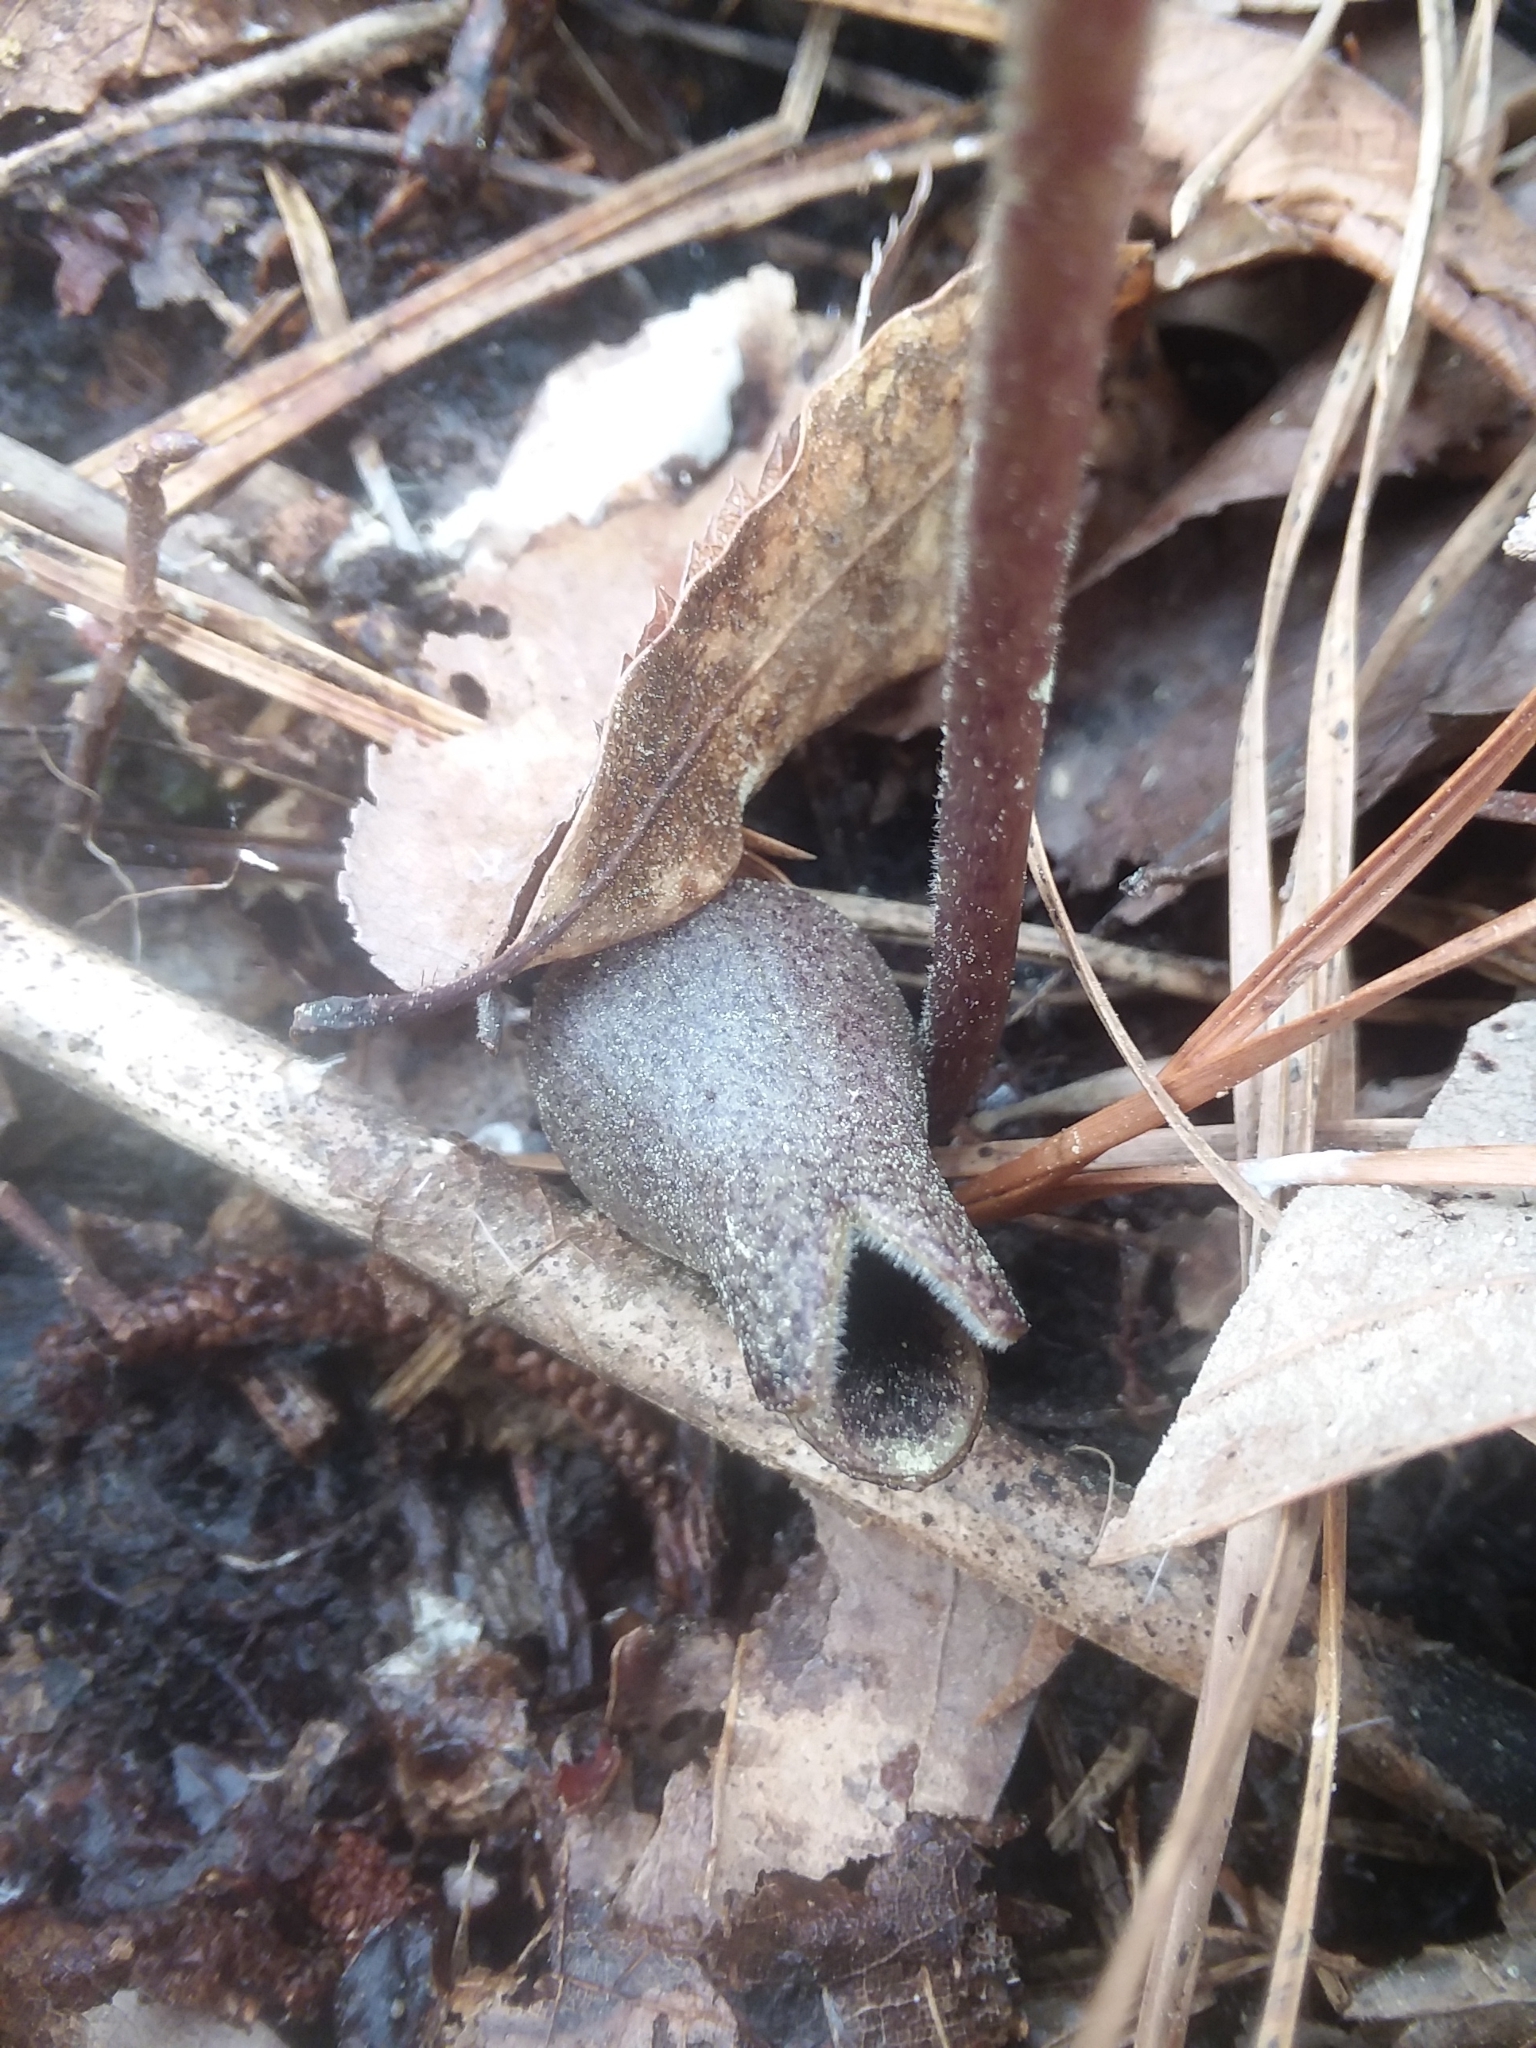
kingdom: Plantae
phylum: Tracheophyta
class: Magnoliopsida
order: Piperales
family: Aristolochiaceae
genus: Hexastylis
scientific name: Hexastylis arifolia
